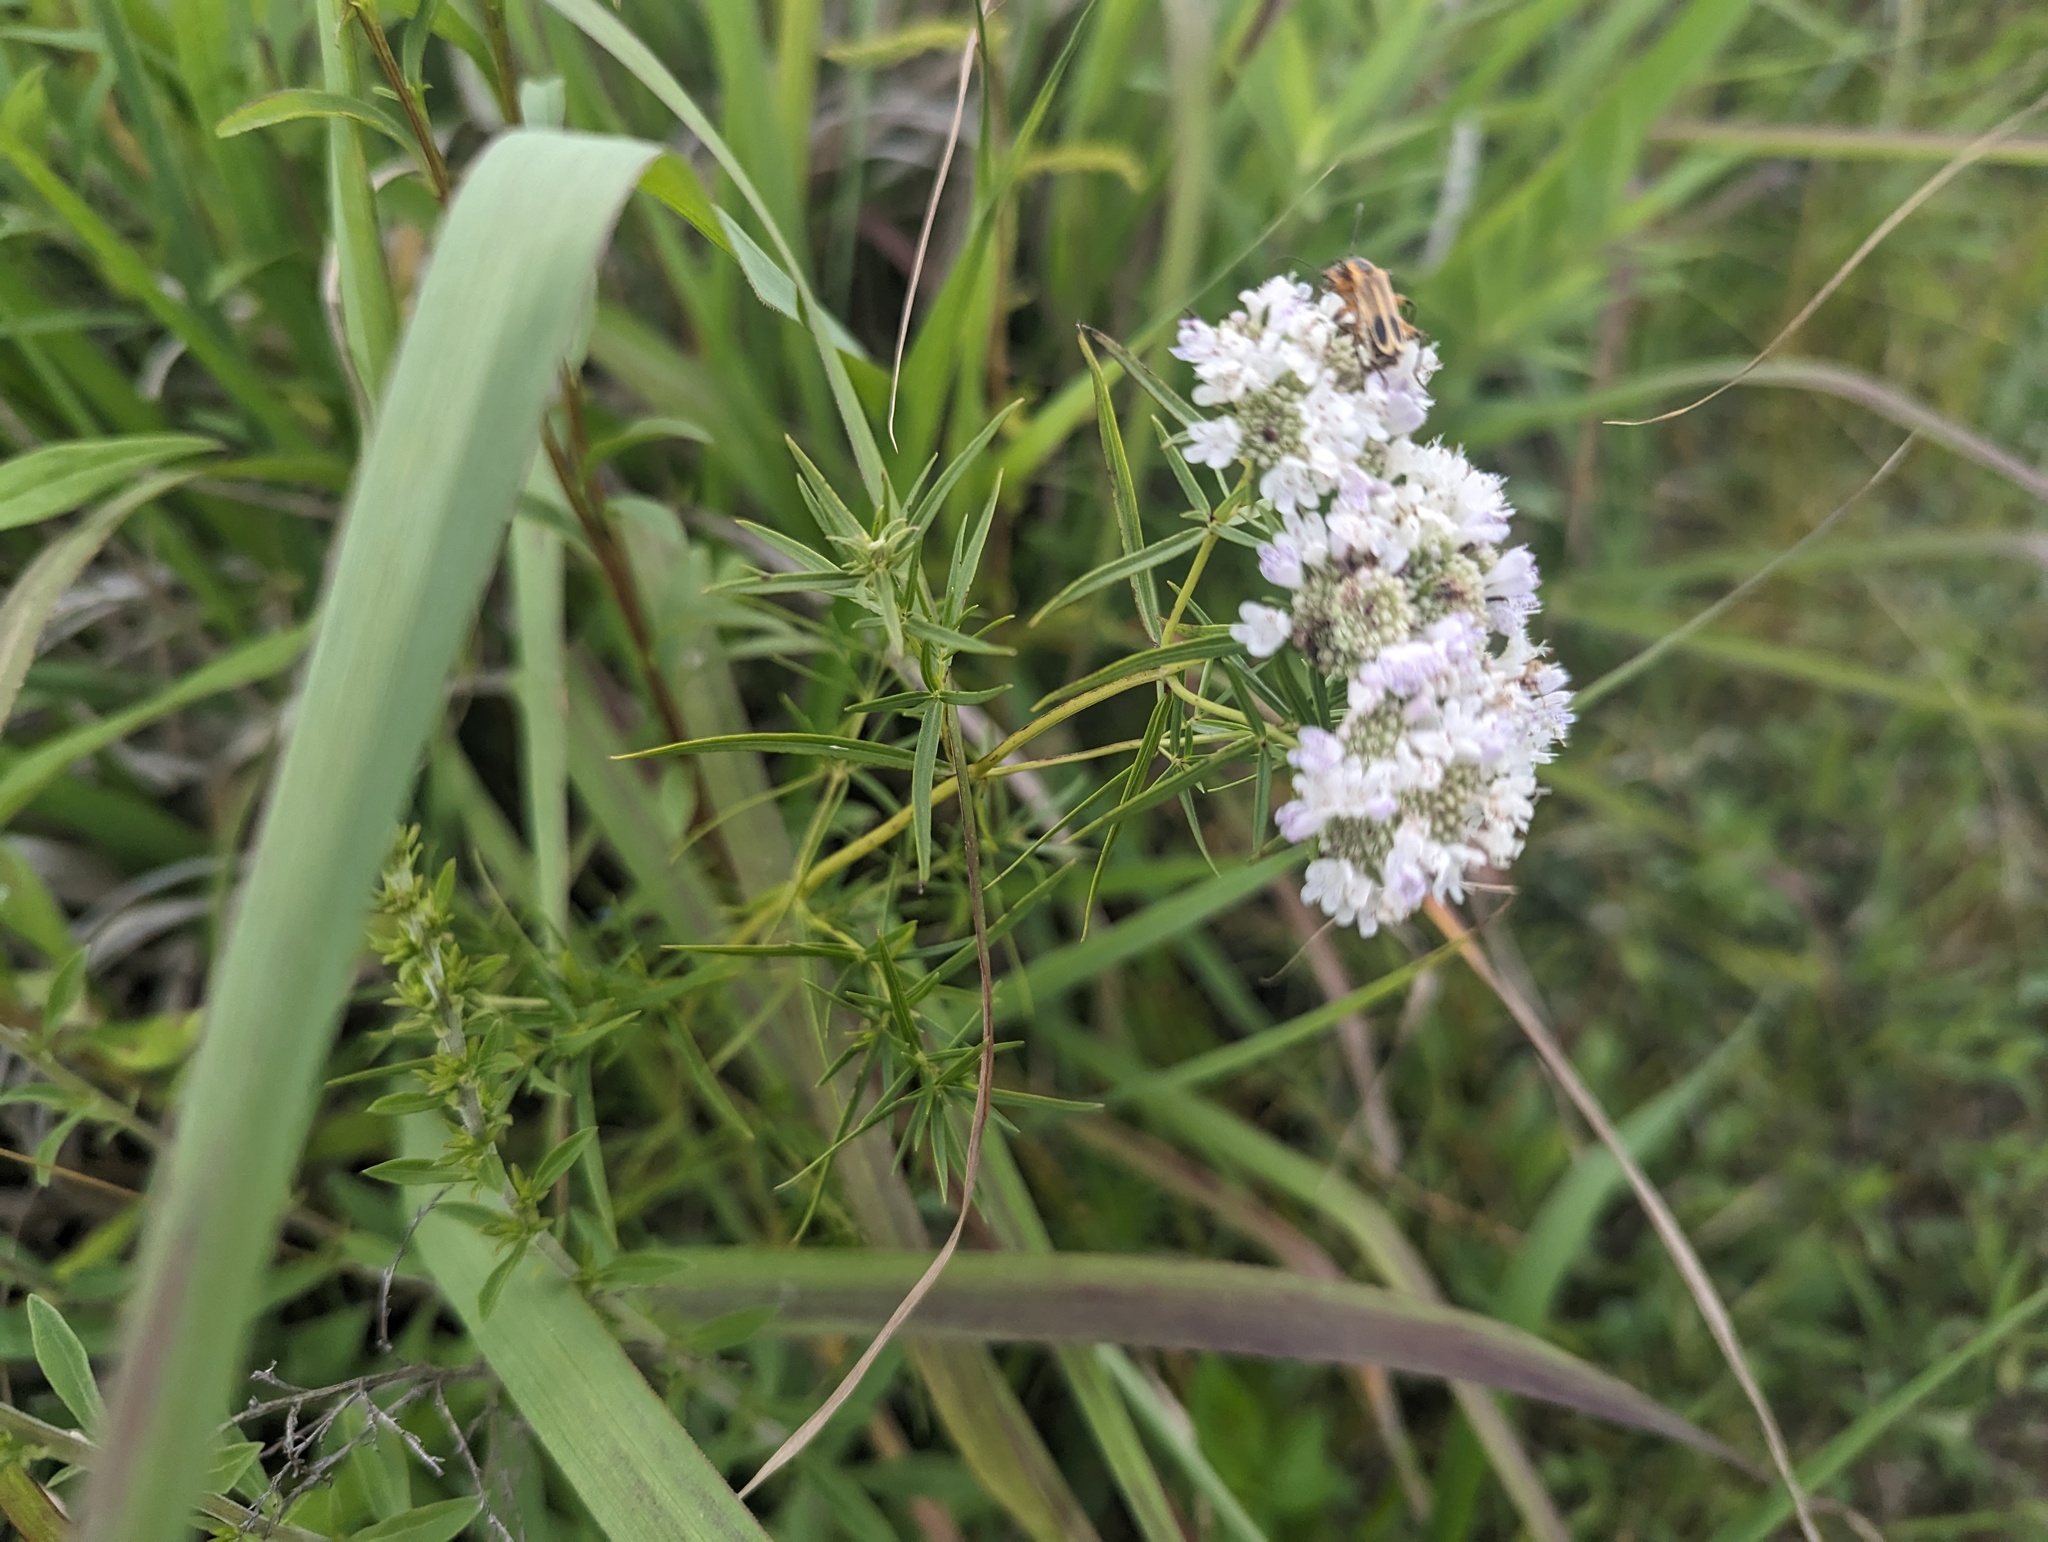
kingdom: Plantae
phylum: Tracheophyta
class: Magnoliopsida
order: Lamiales
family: Lamiaceae
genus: Pycnanthemum
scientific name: Pycnanthemum tenuifolium
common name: Narrow-leaf mountain-mint
